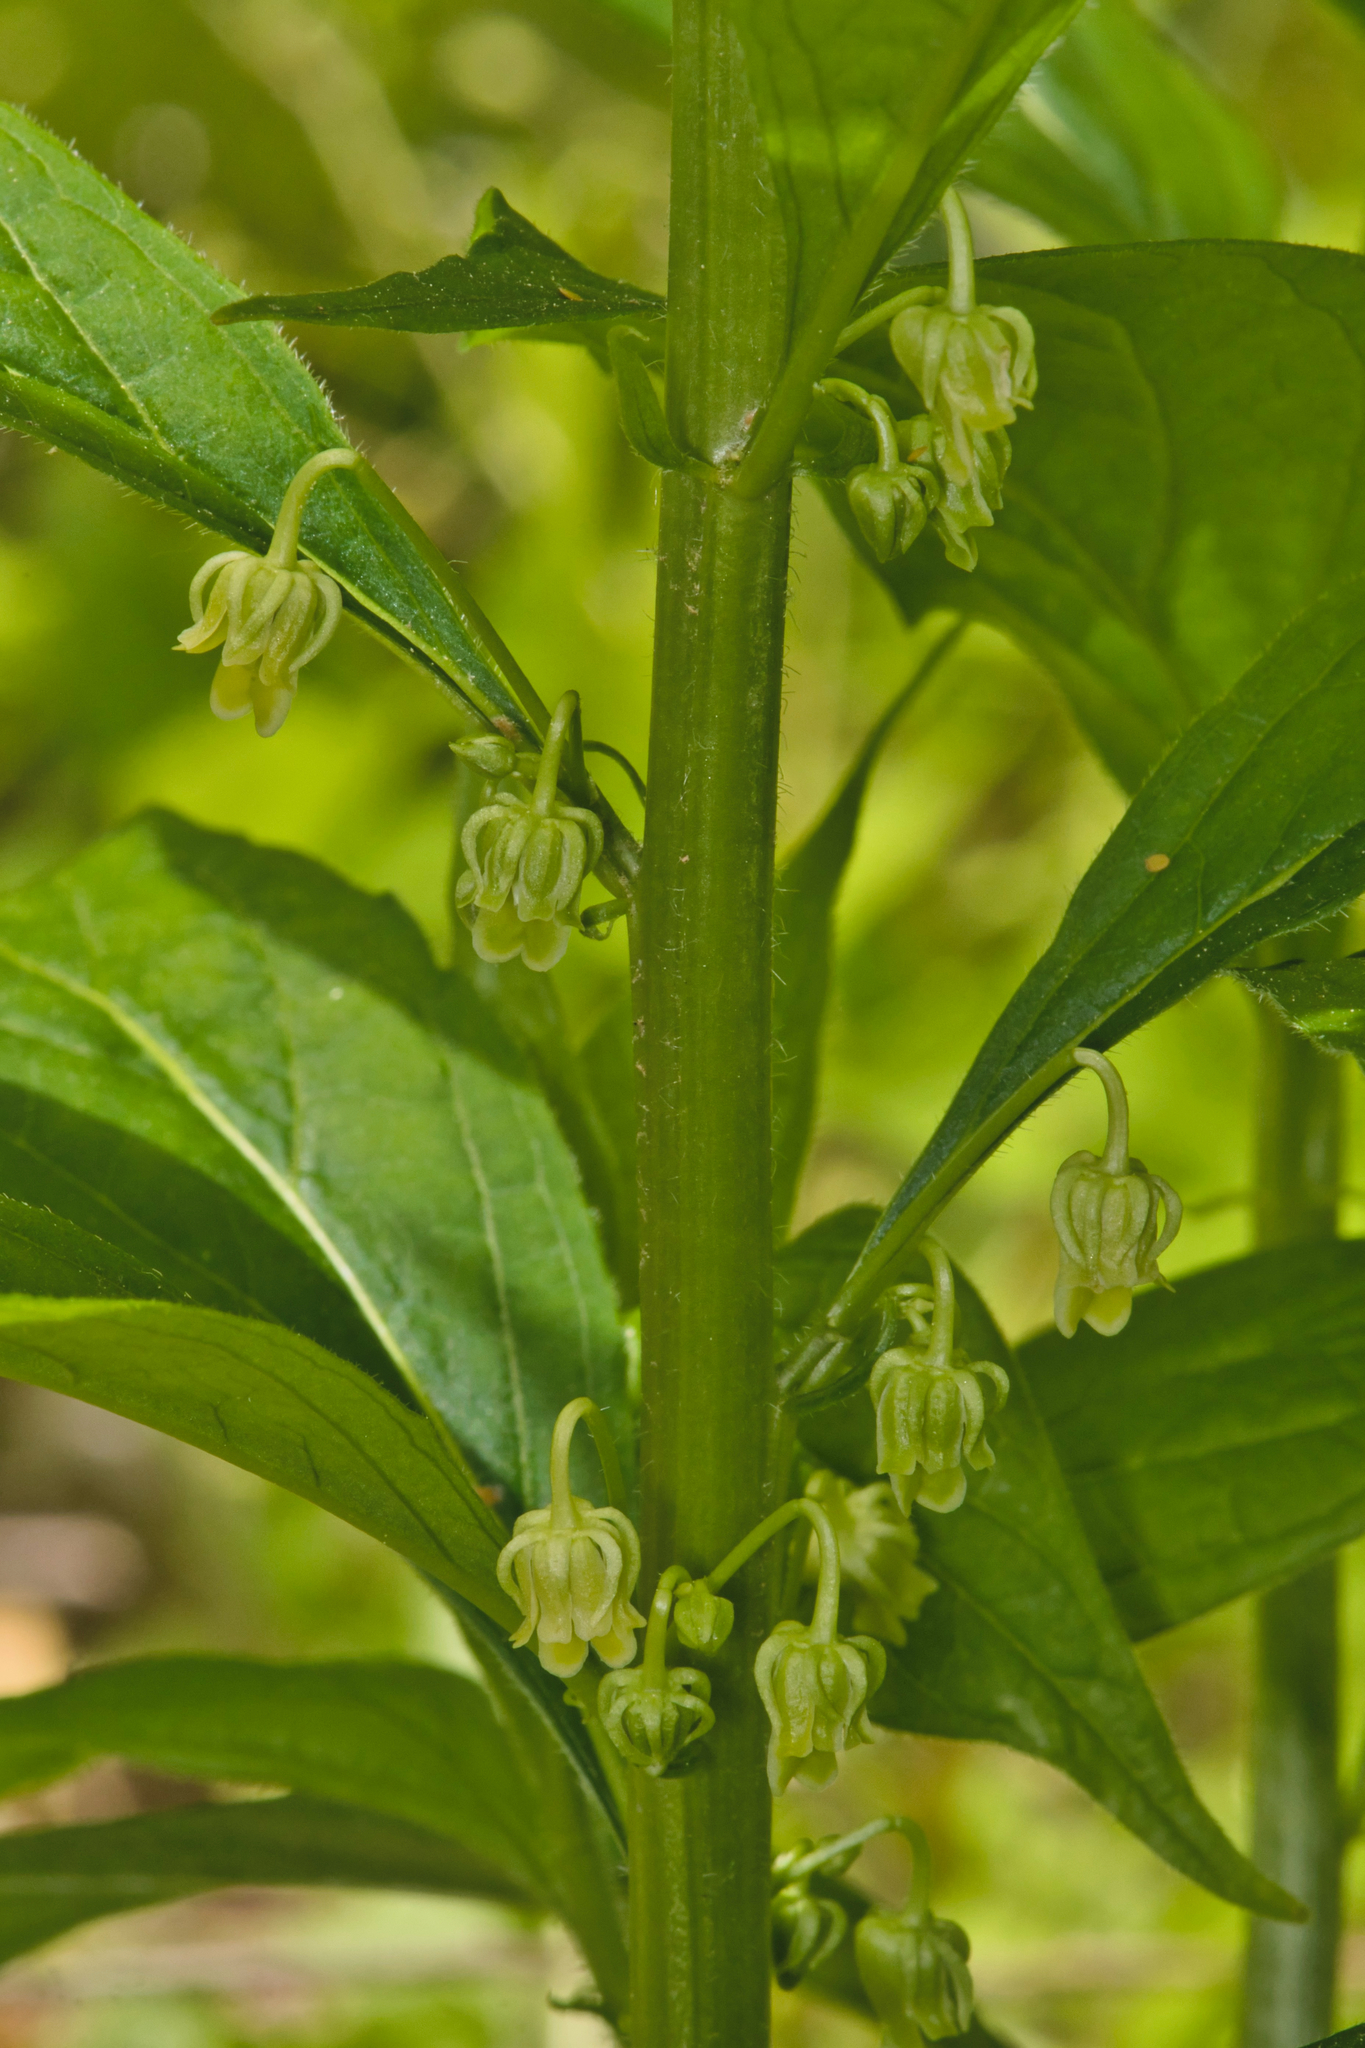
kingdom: Plantae
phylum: Tracheophyta
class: Magnoliopsida
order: Malpighiales
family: Violaceae
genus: Cubelium
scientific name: Cubelium concolor
